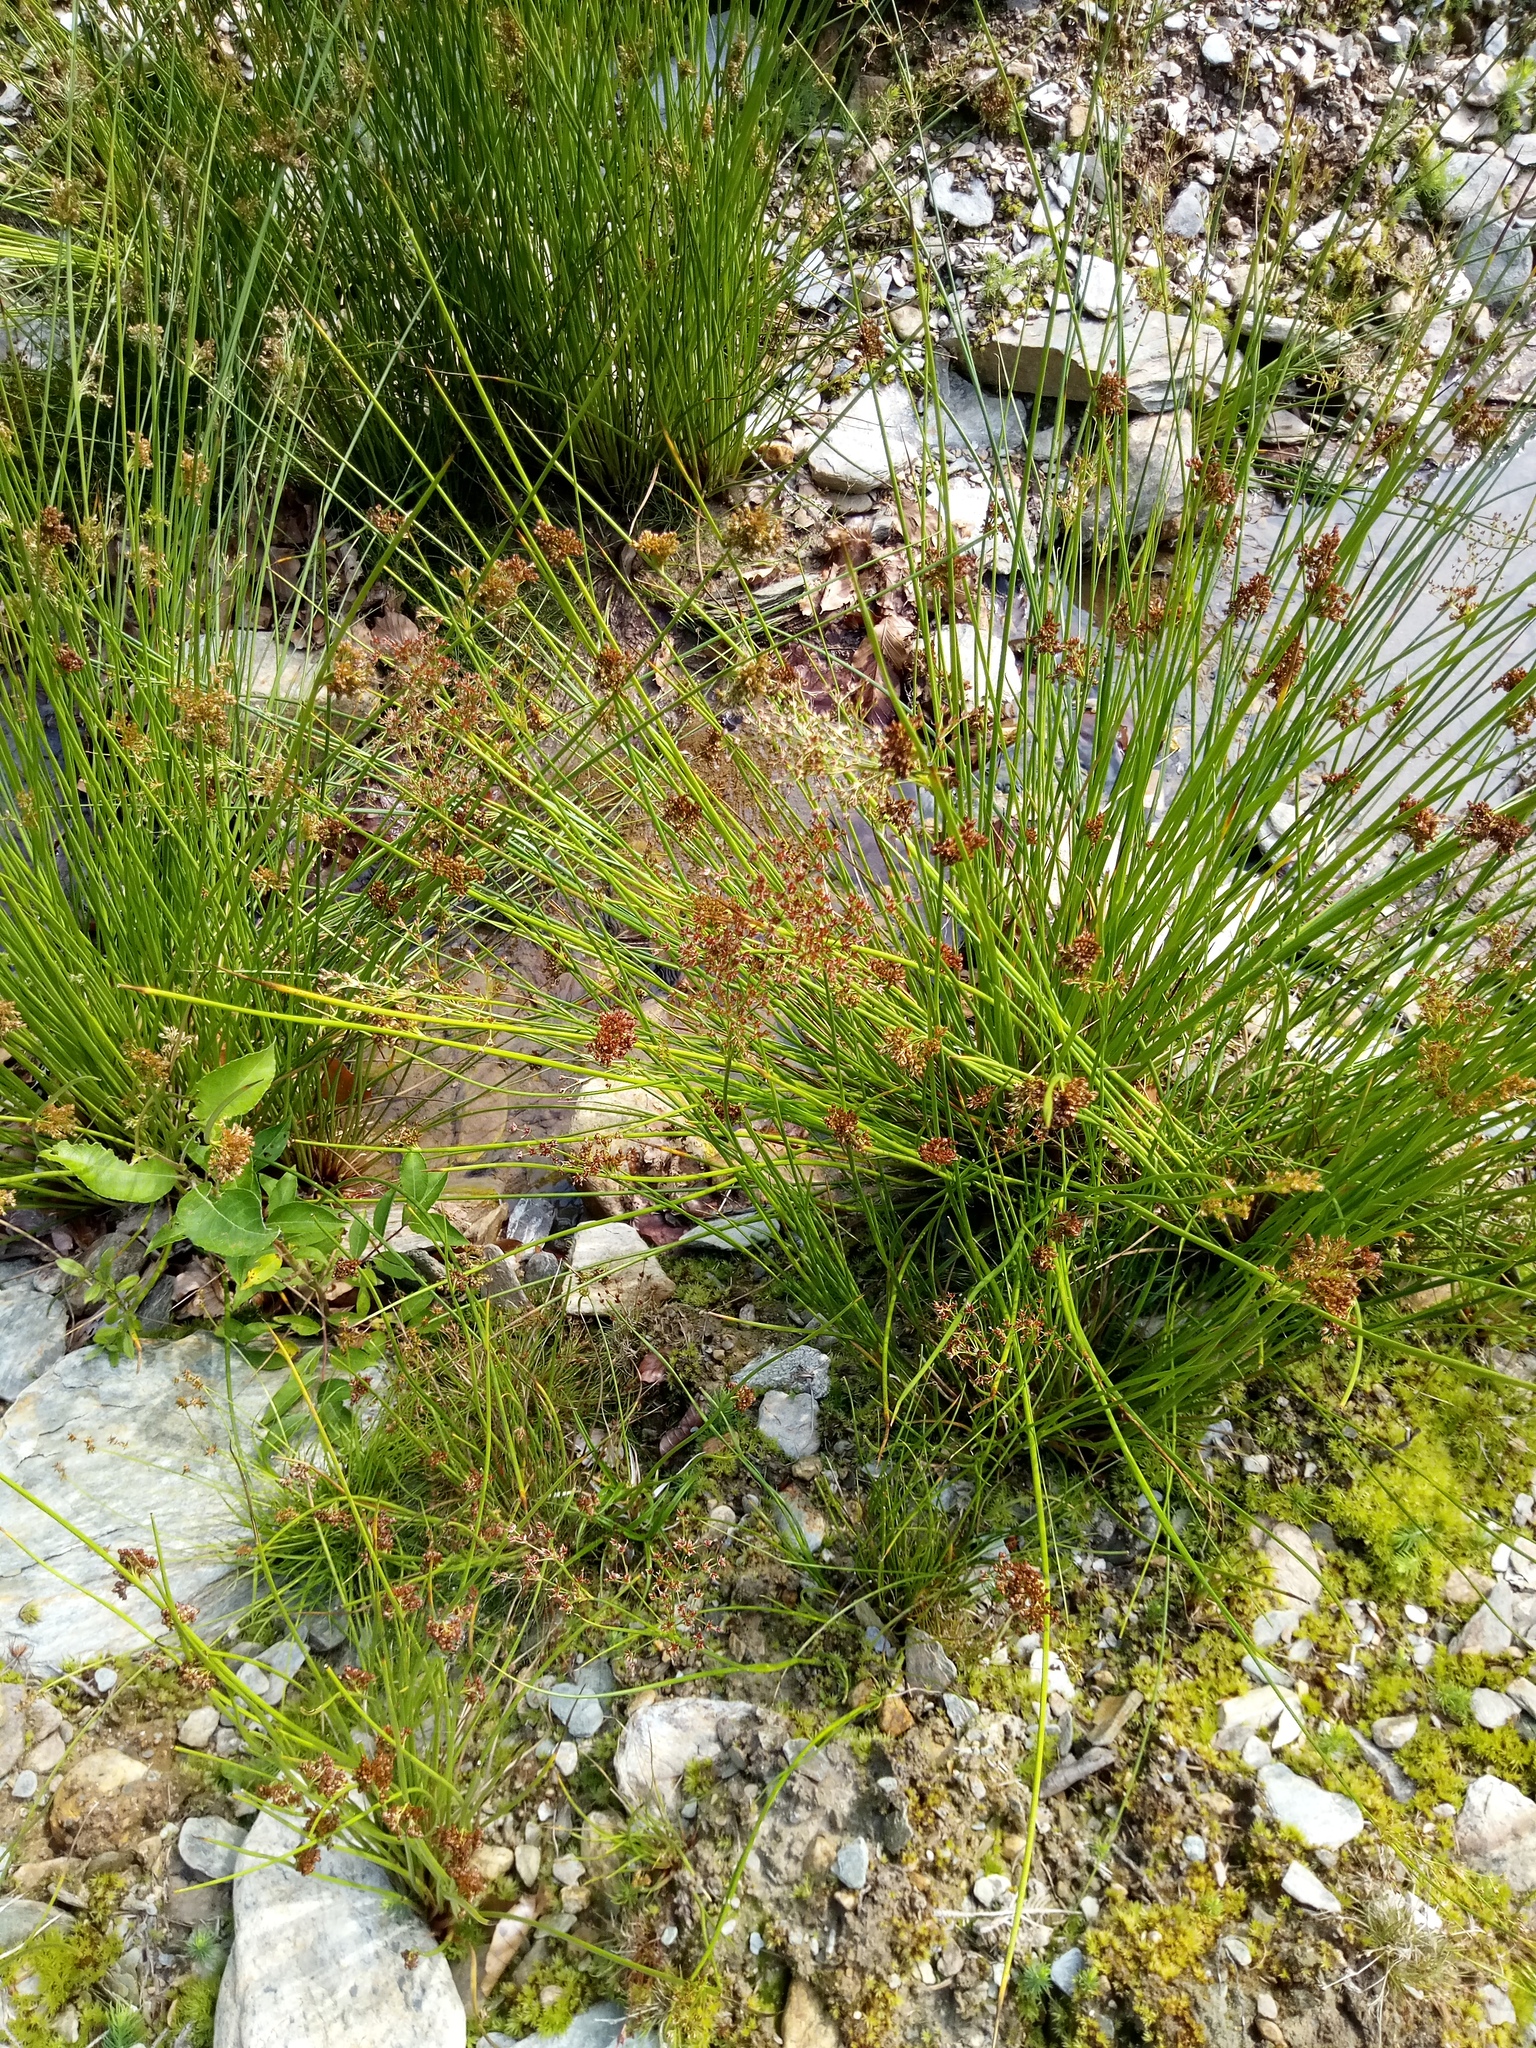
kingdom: Plantae
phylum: Tracheophyta
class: Liliopsida
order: Poales
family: Juncaceae
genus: Juncus
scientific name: Juncus effusus
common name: Soft rush
